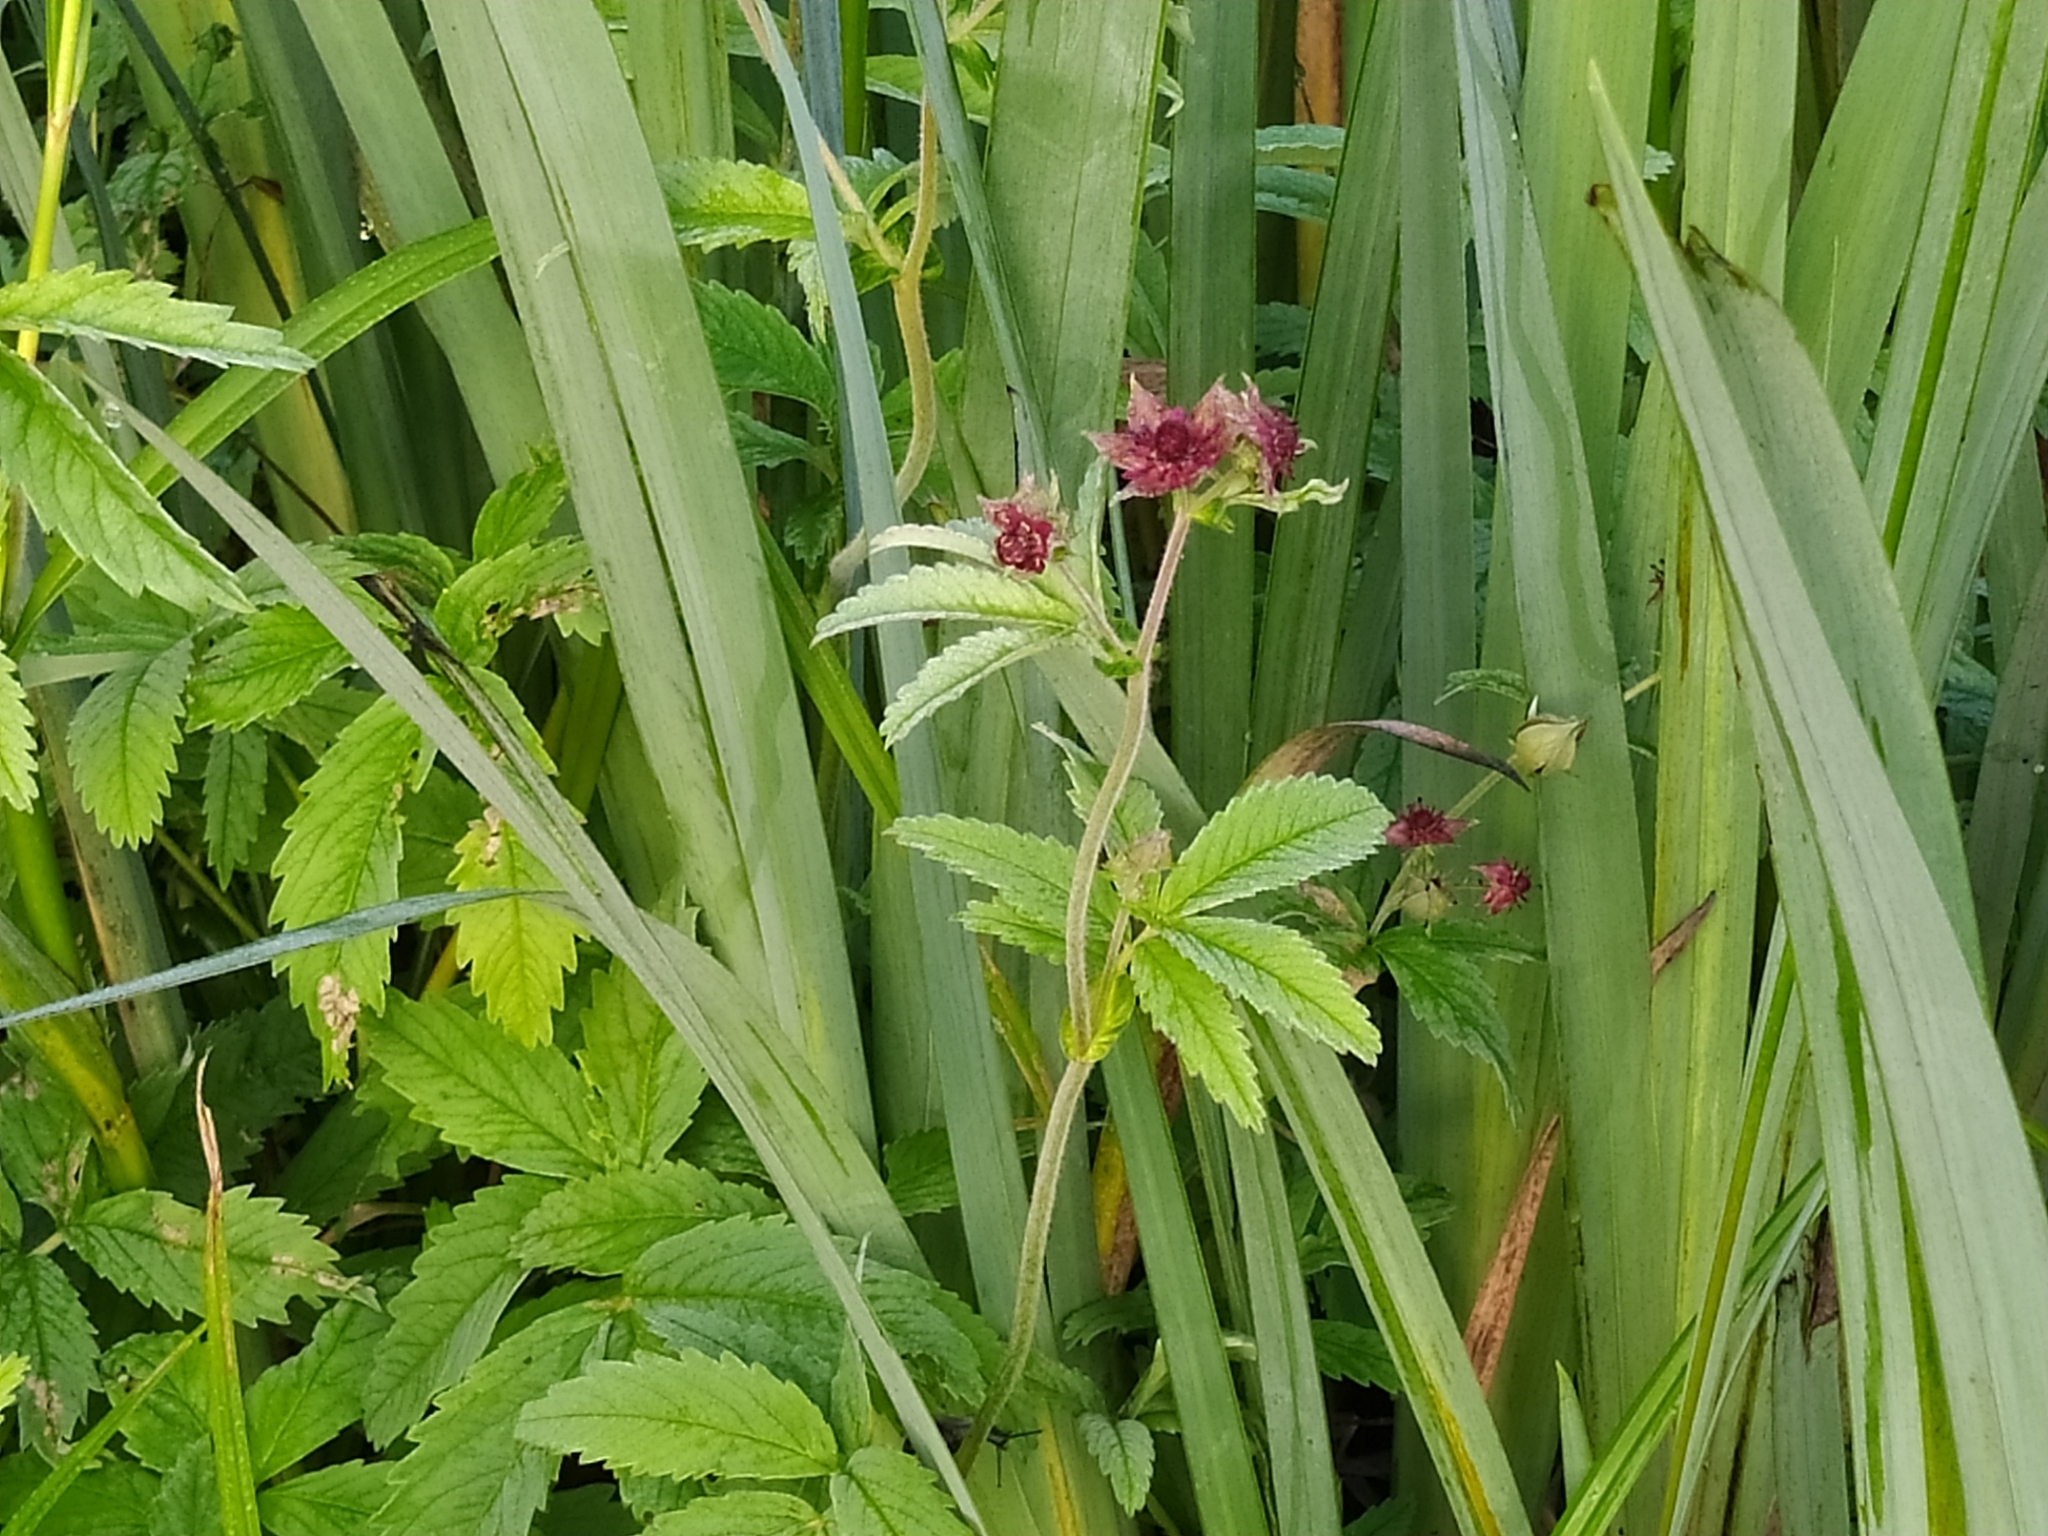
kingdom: Plantae
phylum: Tracheophyta
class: Magnoliopsida
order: Rosales
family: Rosaceae
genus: Comarum
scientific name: Comarum palustre
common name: Marsh cinquefoil
